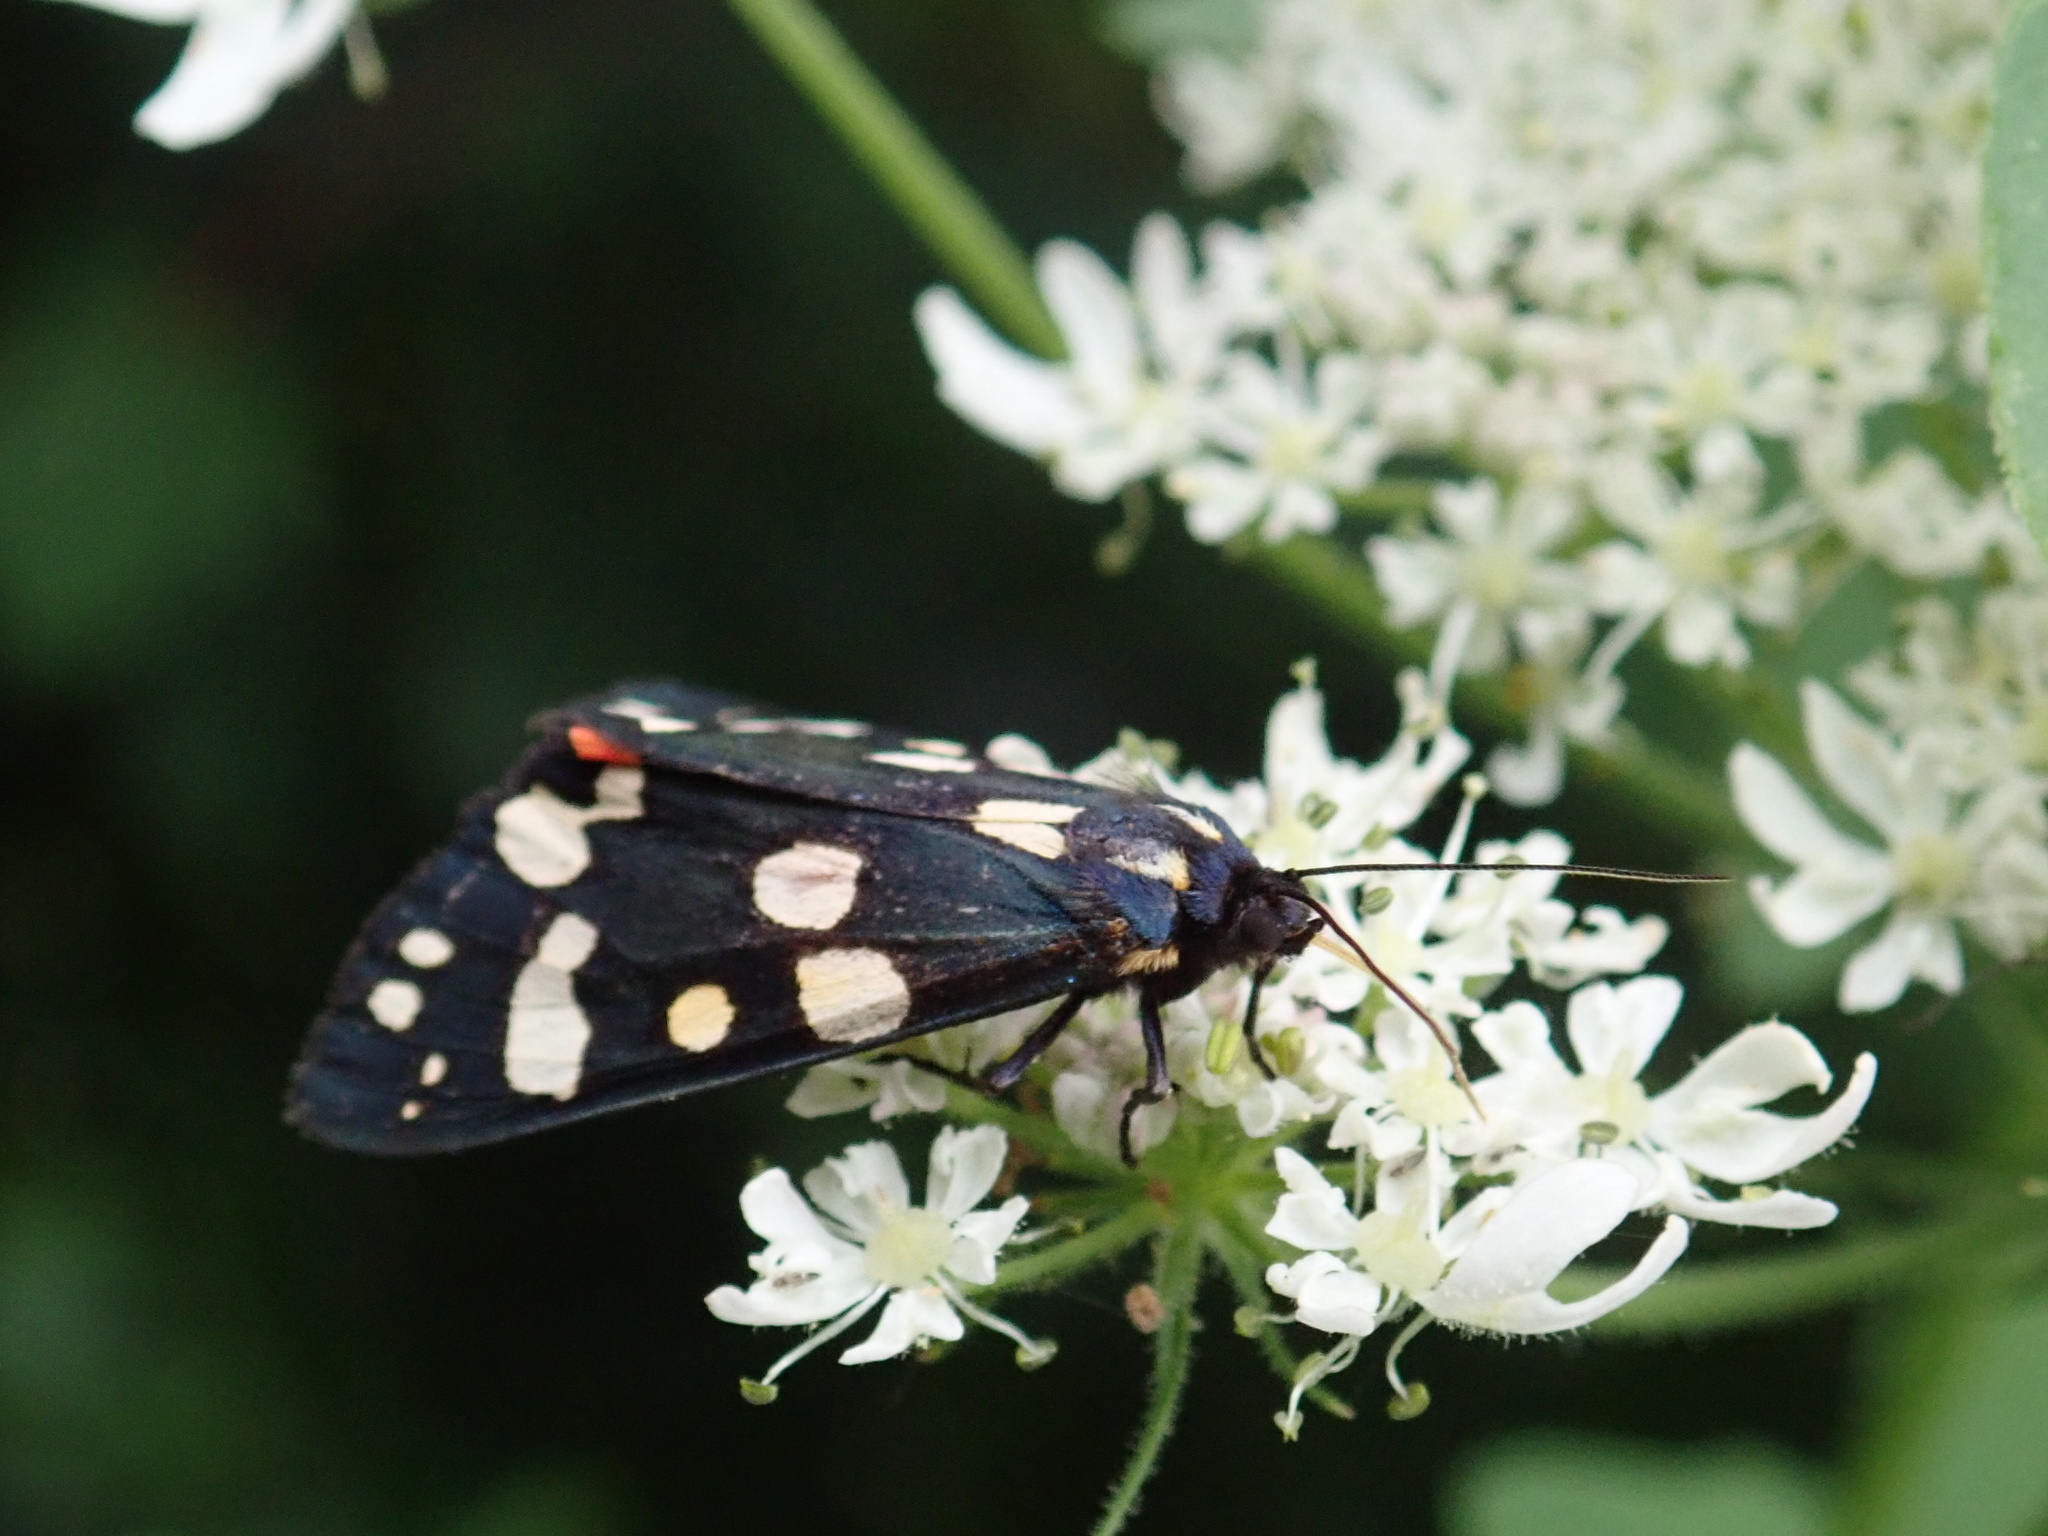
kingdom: Animalia
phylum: Arthropoda
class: Insecta
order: Lepidoptera
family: Erebidae
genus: Callimorpha
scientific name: Callimorpha dominula
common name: Scarlet tiger
